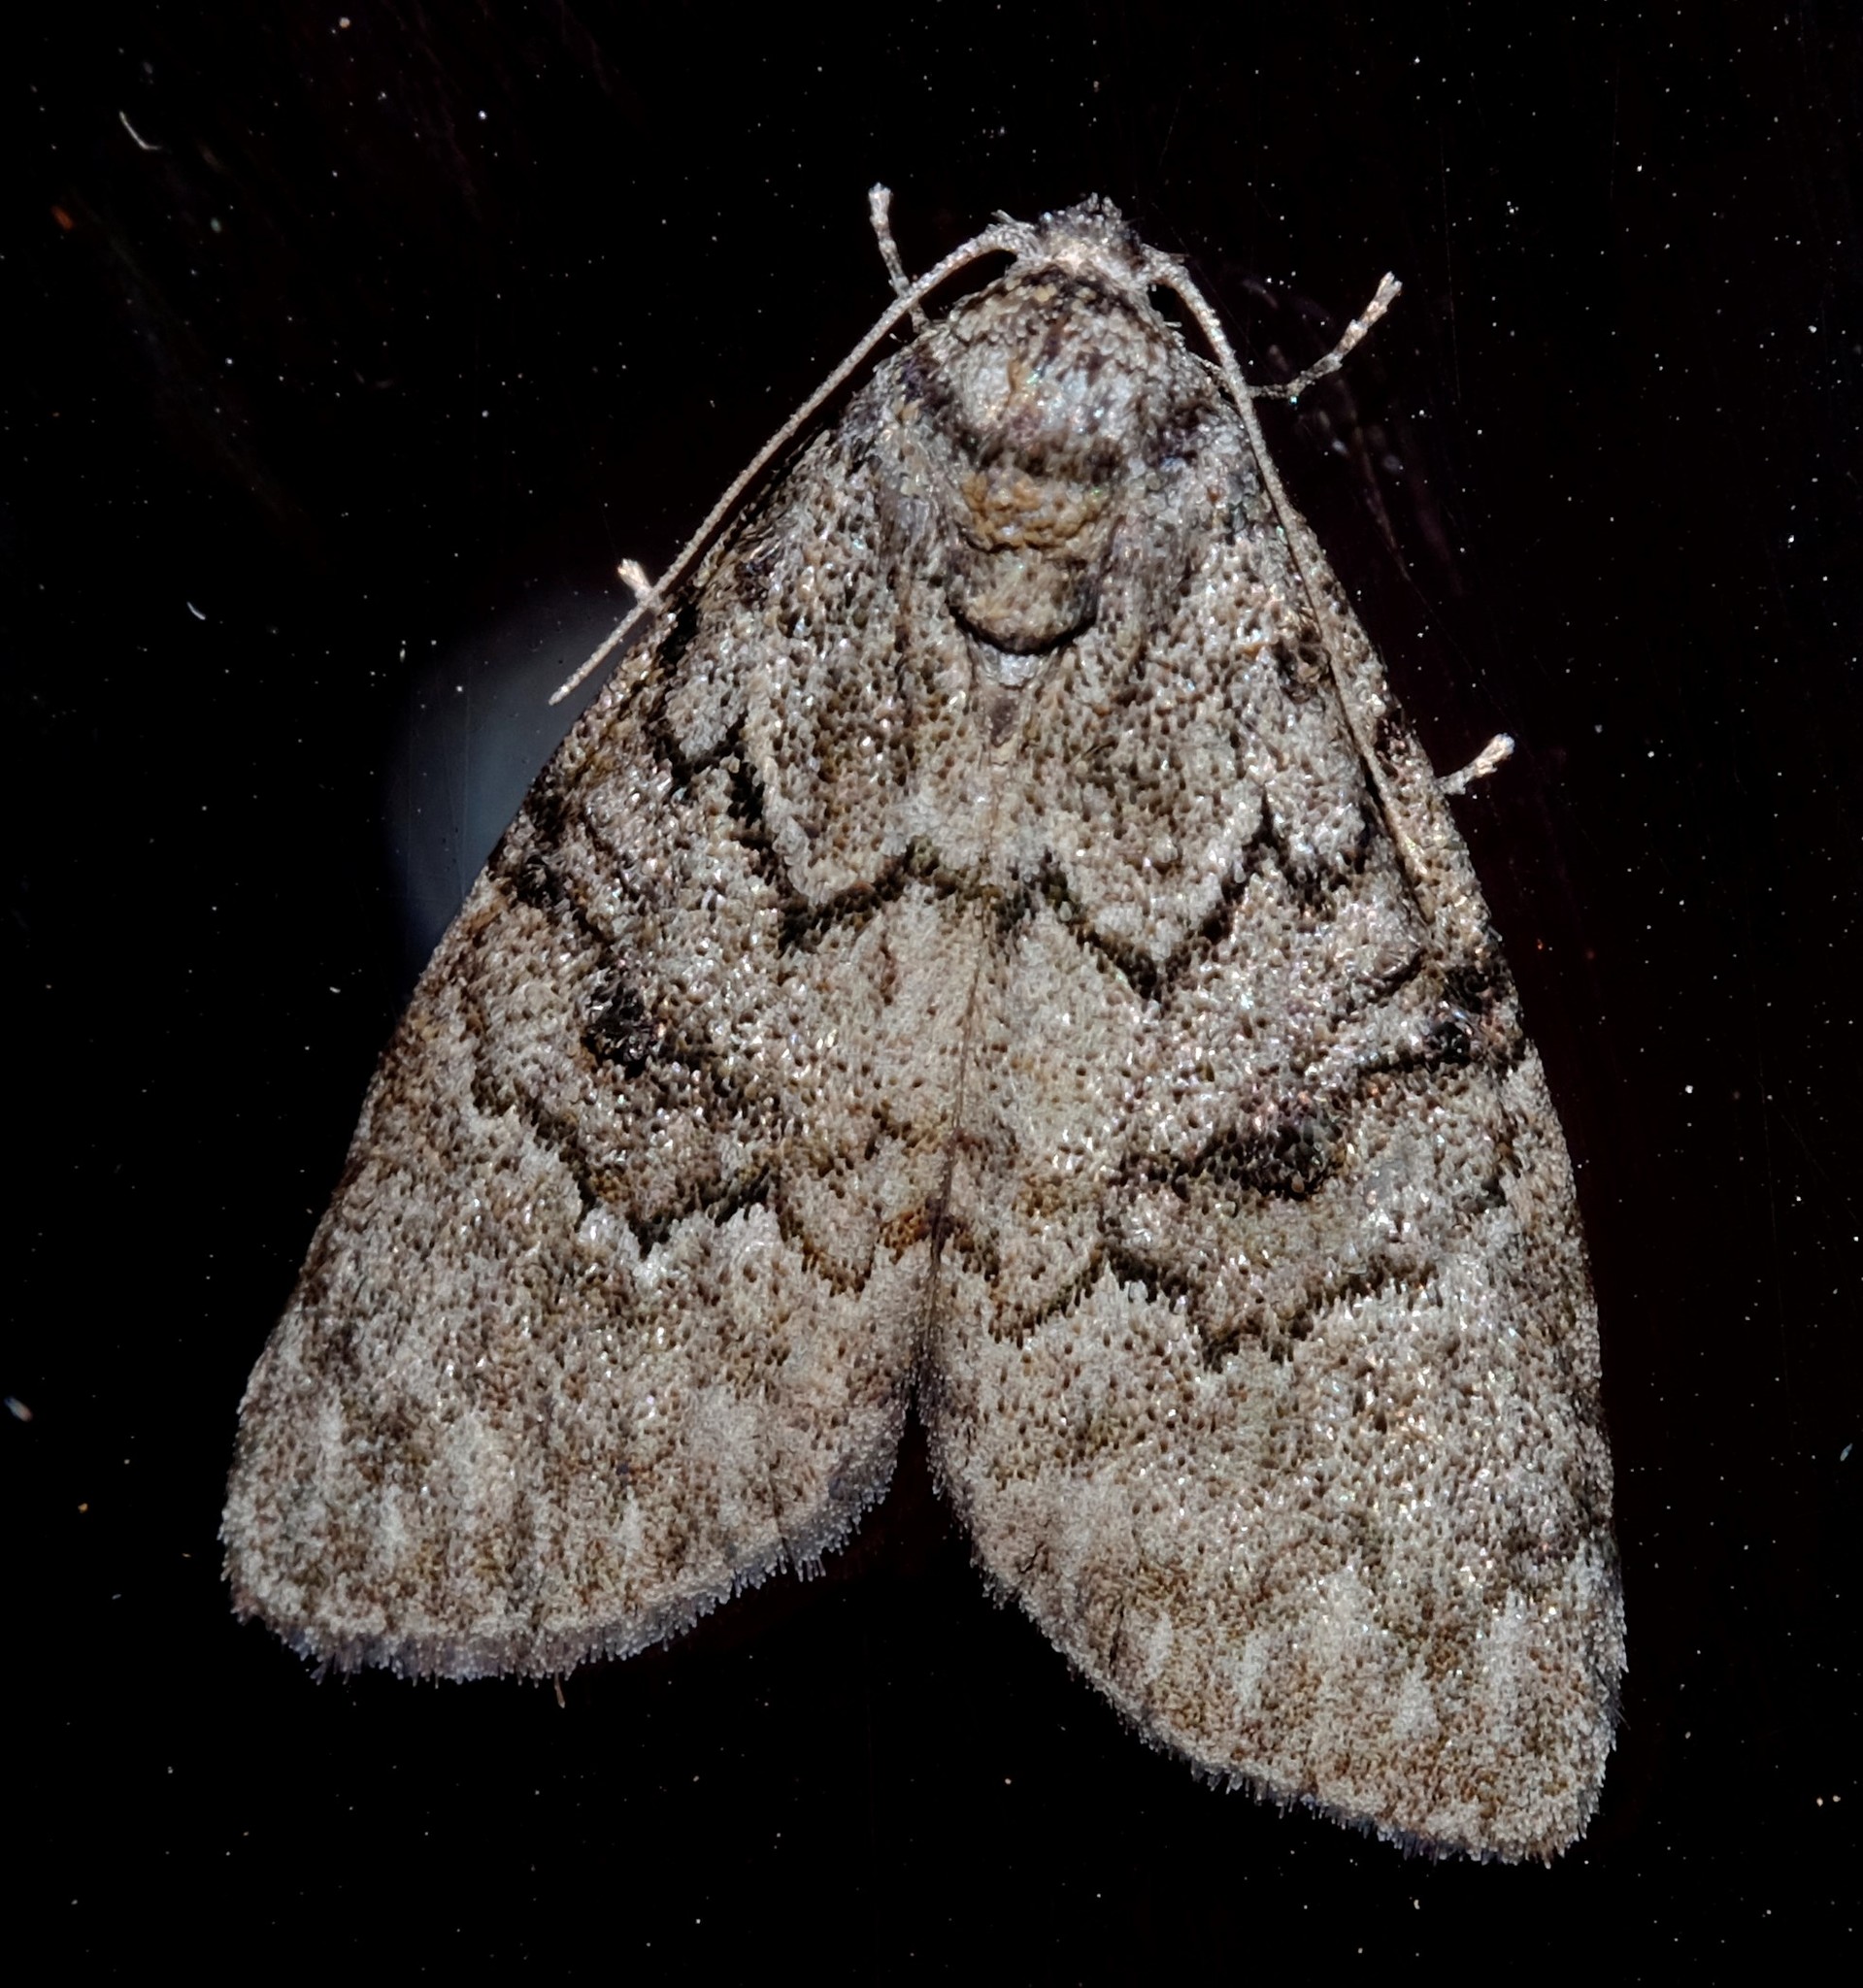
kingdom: Animalia
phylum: Arthropoda
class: Insecta
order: Lepidoptera
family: Nolidae
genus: Uraba
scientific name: Uraba lugens
